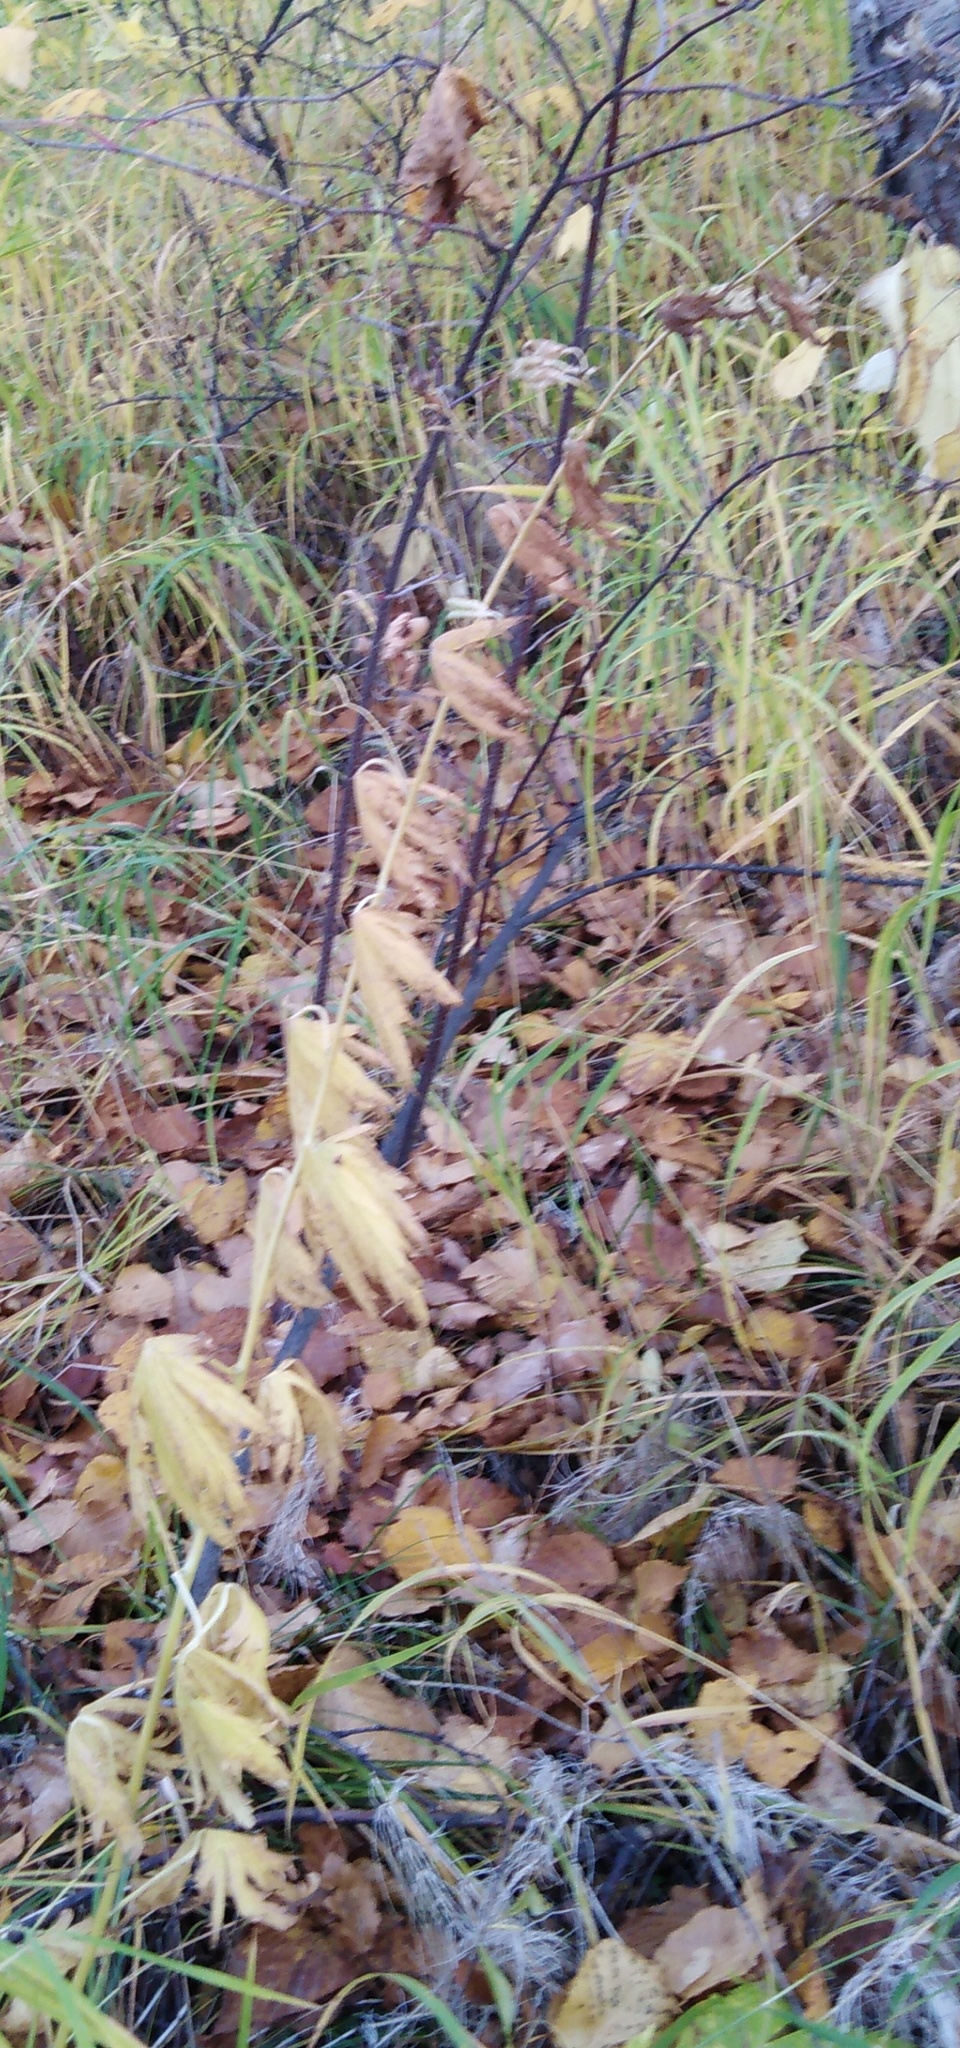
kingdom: Plantae
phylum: Tracheophyta
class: Magnoliopsida
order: Ranunculales
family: Ranunculaceae
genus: Aconitum
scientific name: Aconitum fischeri
